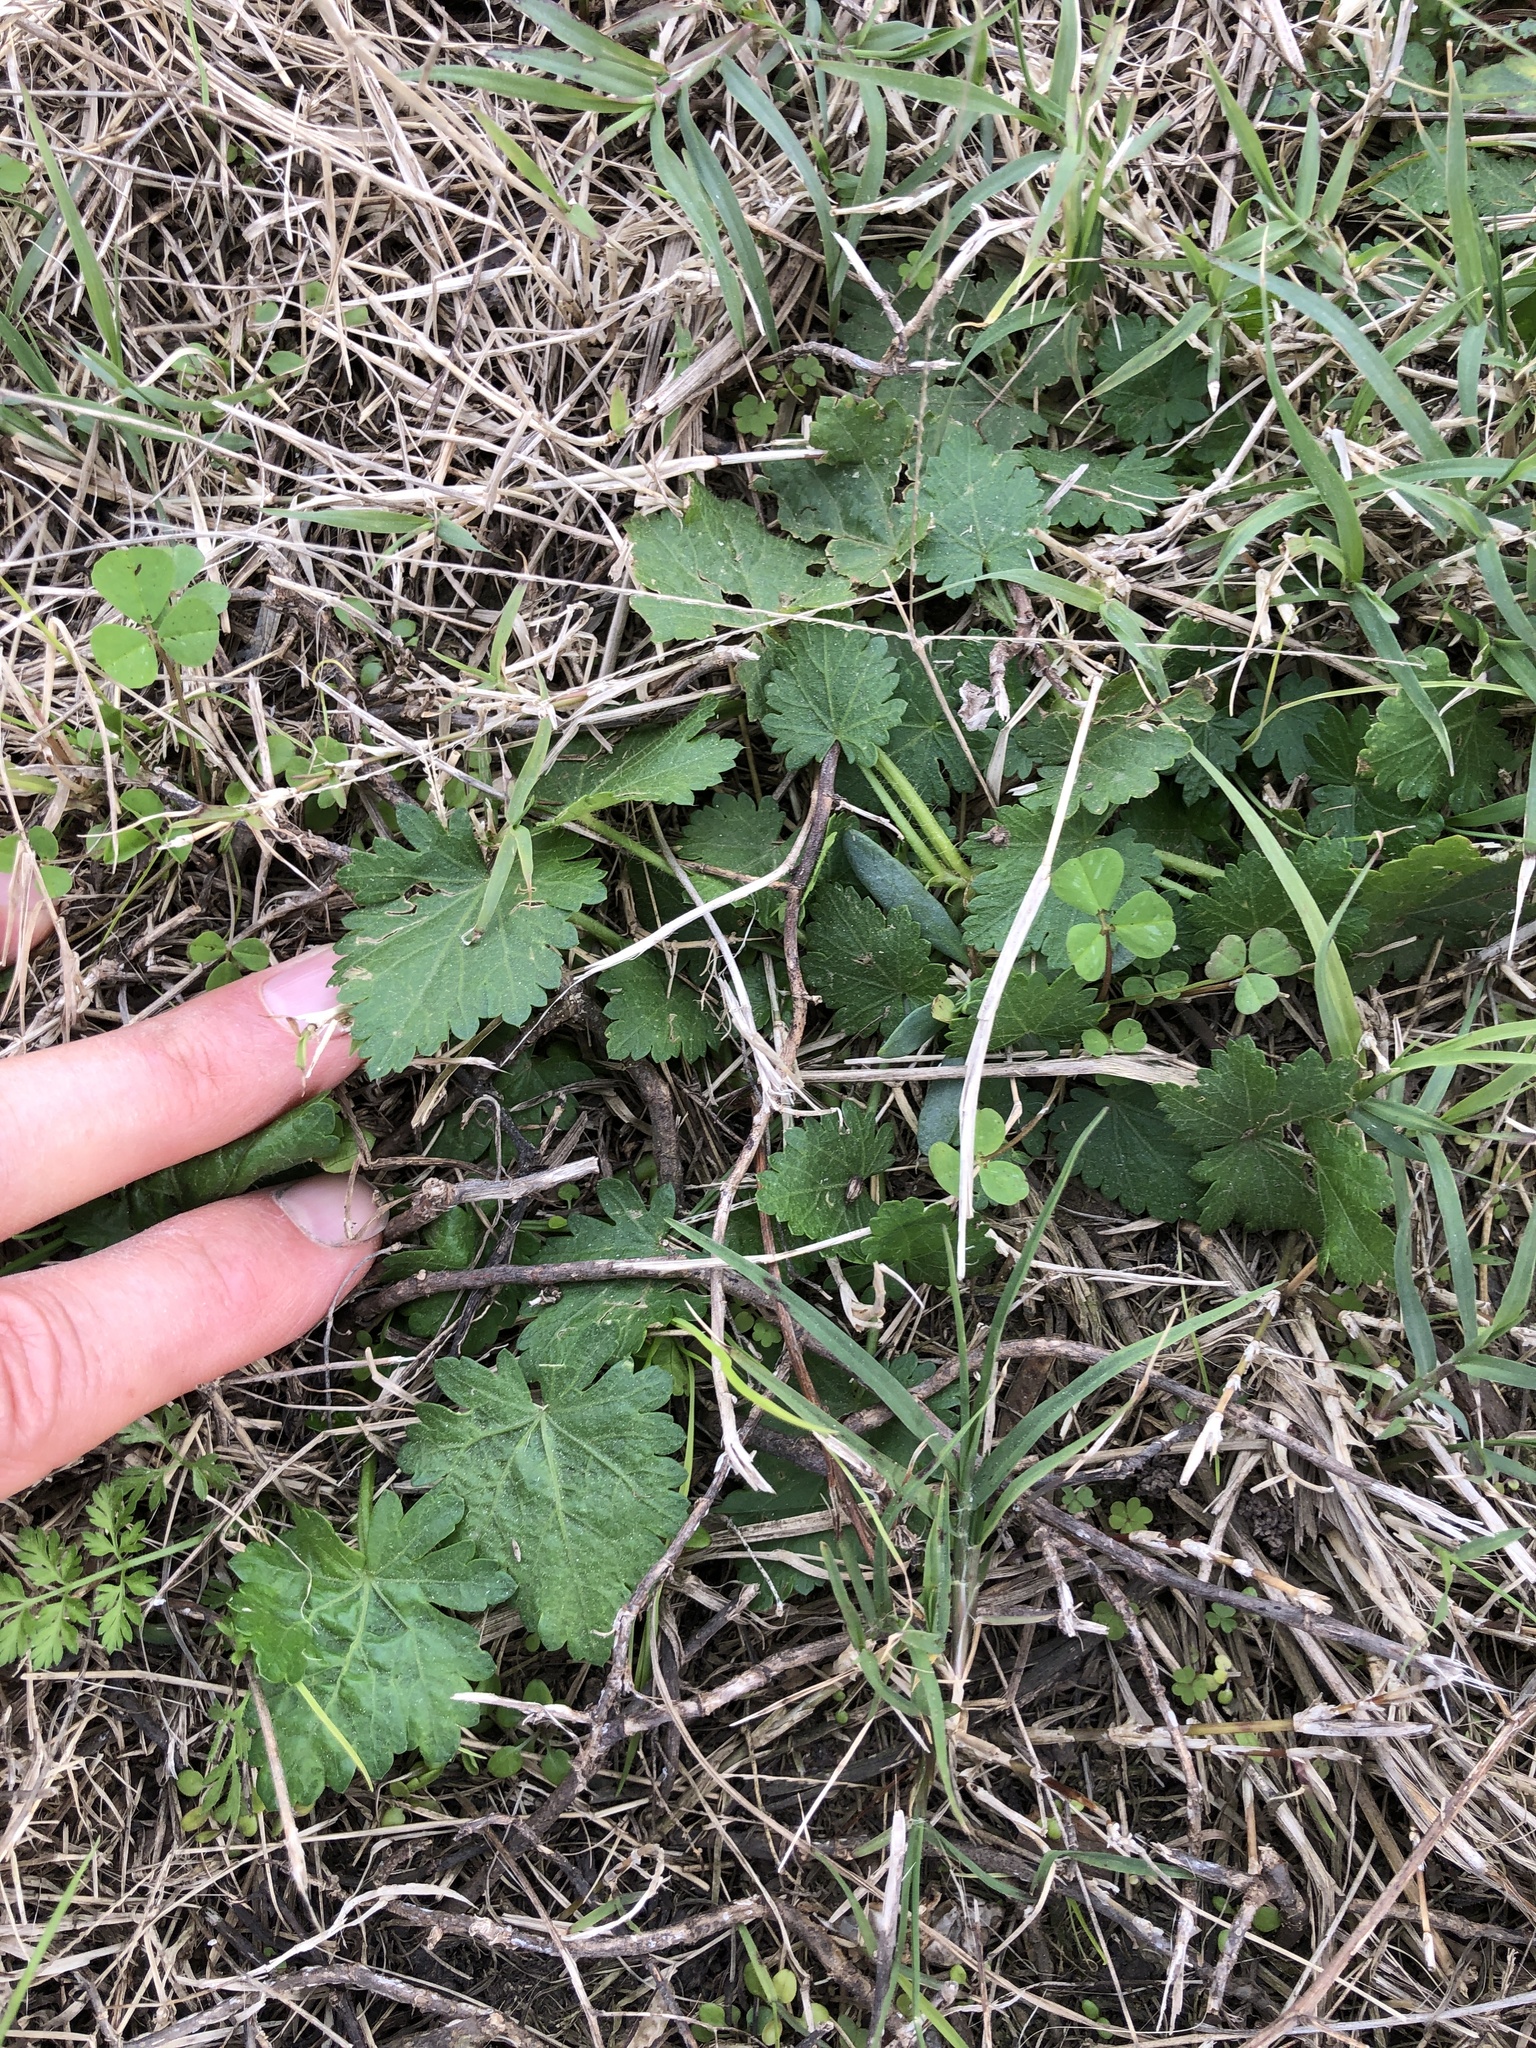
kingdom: Plantae
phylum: Tracheophyta
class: Magnoliopsida
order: Malvales
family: Malvaceae
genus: Modiola
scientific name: Modiola caroliniana
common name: Carolina bristlemallow
